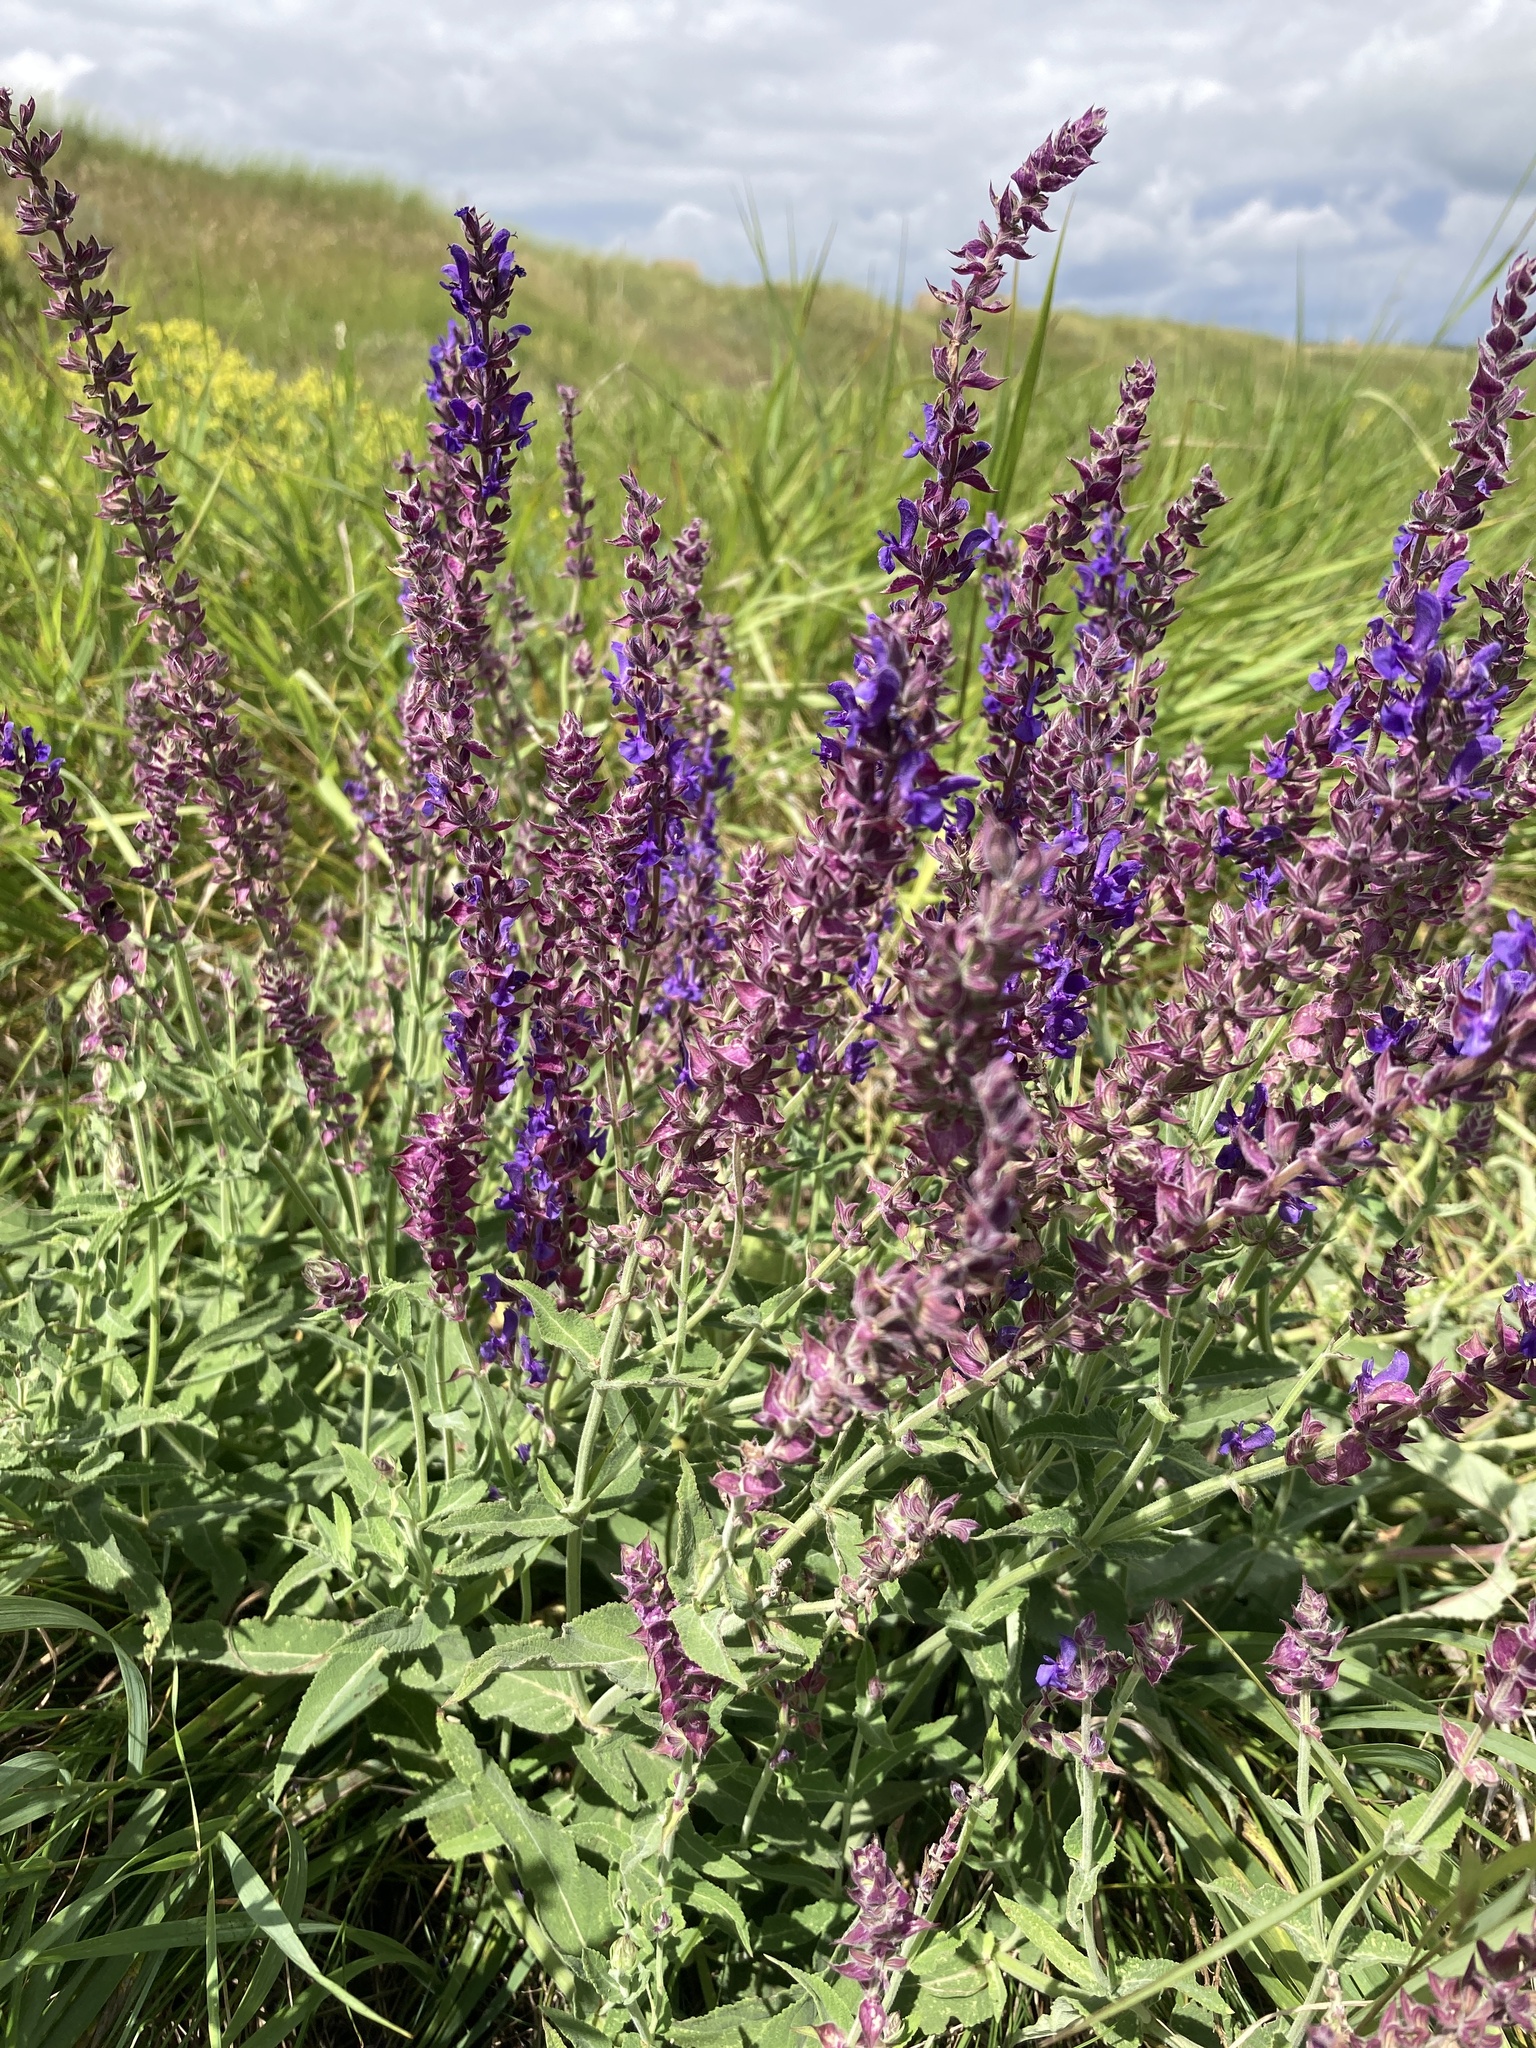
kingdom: Plantae
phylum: Tracheophyta
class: Magnoliopsida
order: Lamiales
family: Lamiaceae
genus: Salvia
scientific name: Salvia nemorosa
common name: Balkan clary
